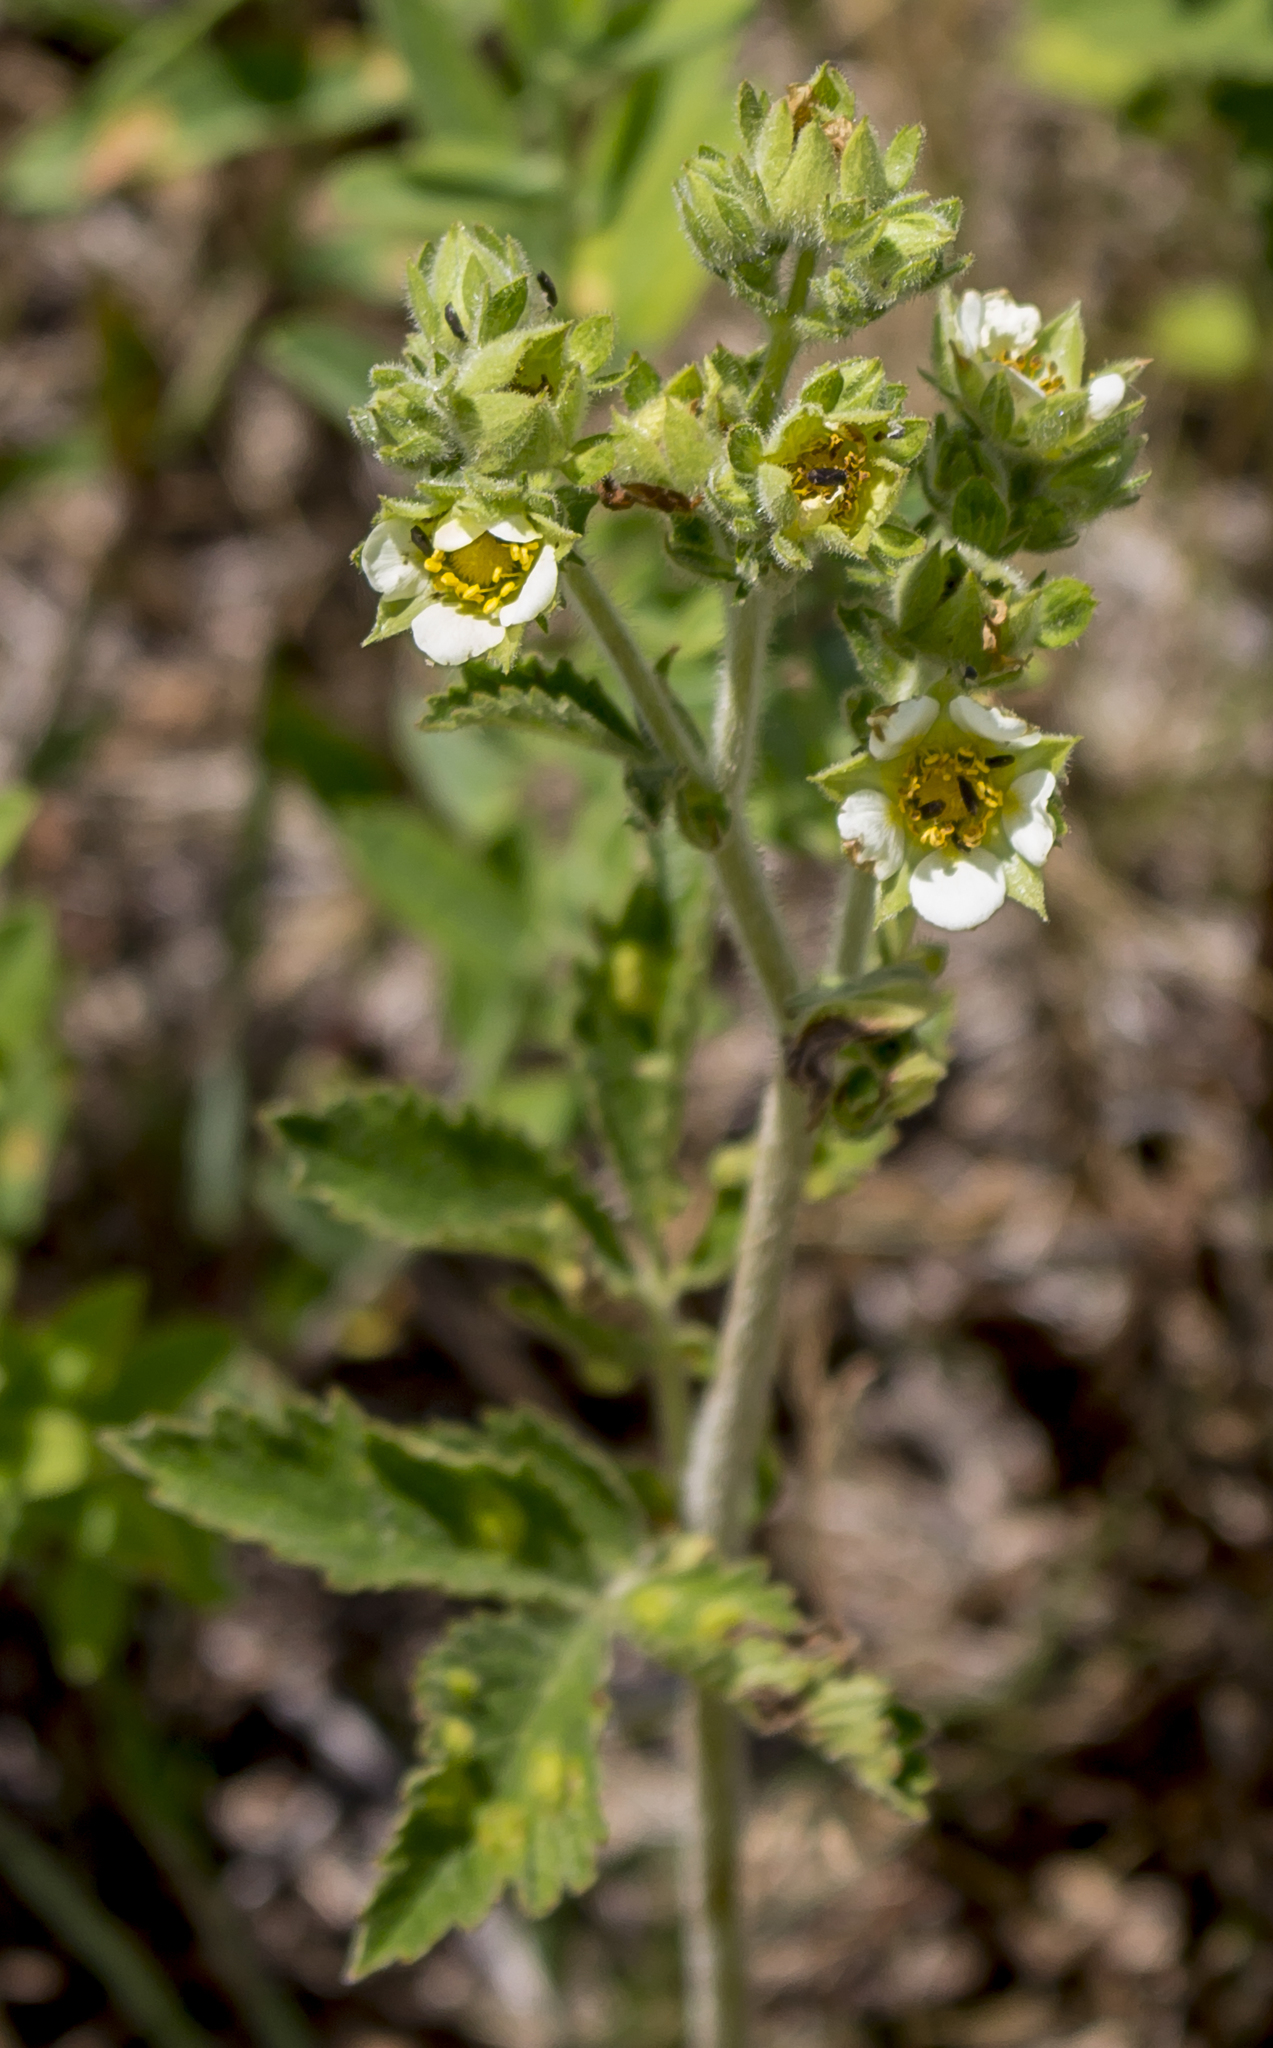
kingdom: Plantae
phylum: Tracheophyta
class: Magnoliopsida
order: Rosales
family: Rosaceae
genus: Drymocallis
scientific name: Drymocallis arguta
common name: Tall cinquefoil
